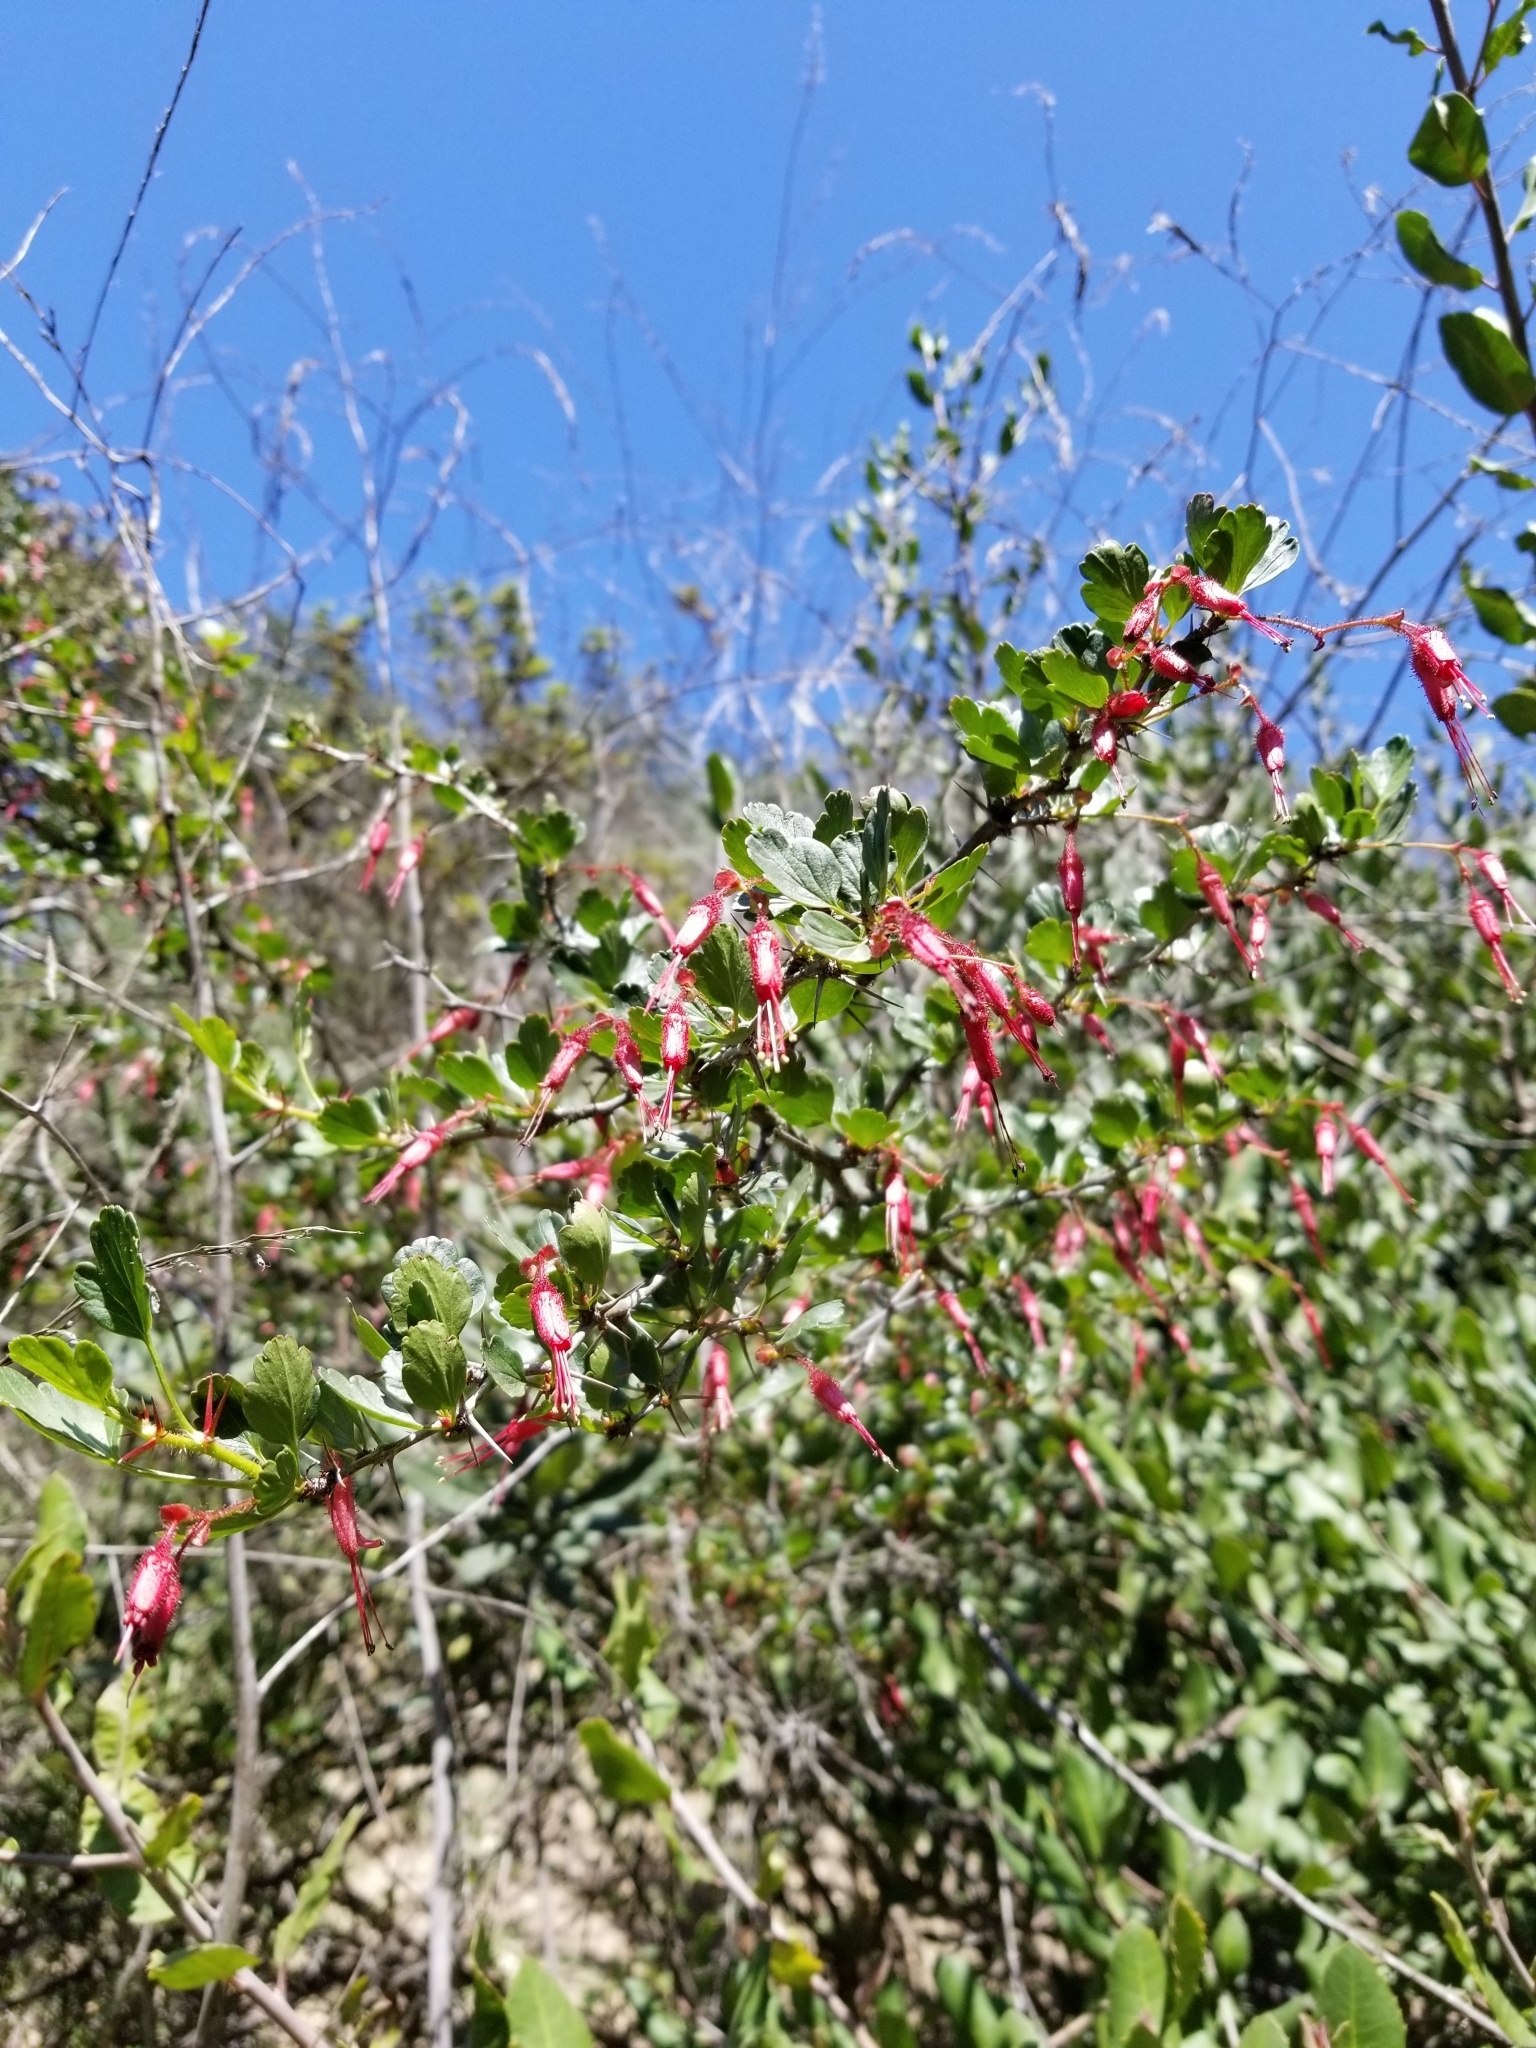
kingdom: Plantae
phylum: Tracheophyta
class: Magnoliopsida
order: Saxifragales
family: Grossulariaceae
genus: Ribes
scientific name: Ribes speciosum
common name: Fuchsia-flower gooseberry
